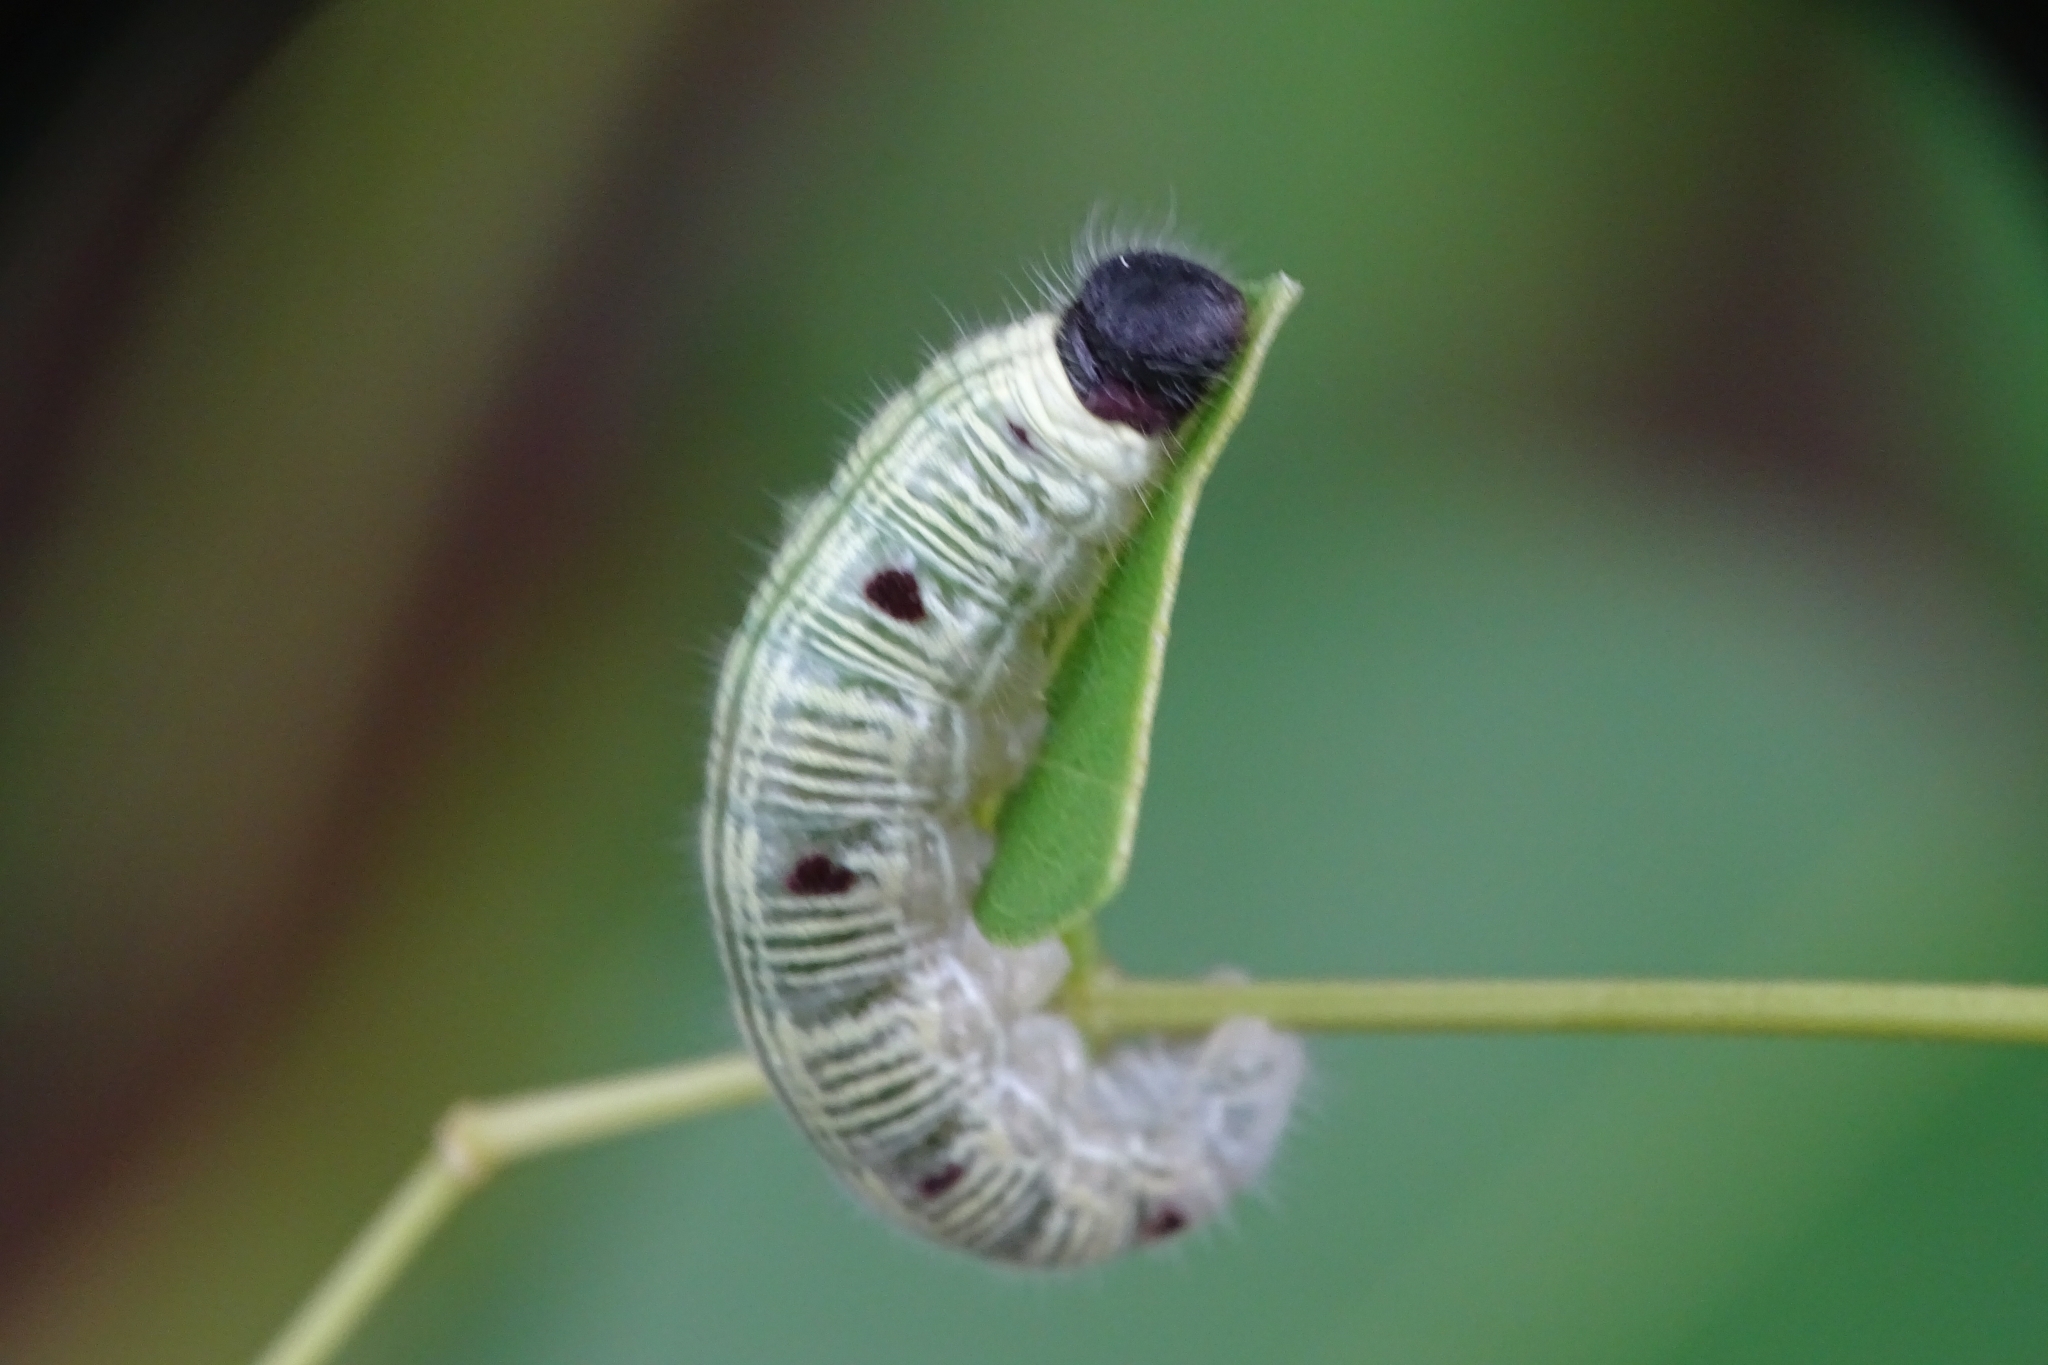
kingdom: Animalia
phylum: Arthropoda
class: Insecta
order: Lepidoptera
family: Hesperiidae
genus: Hasora
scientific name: Hasora badra
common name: Common awl
